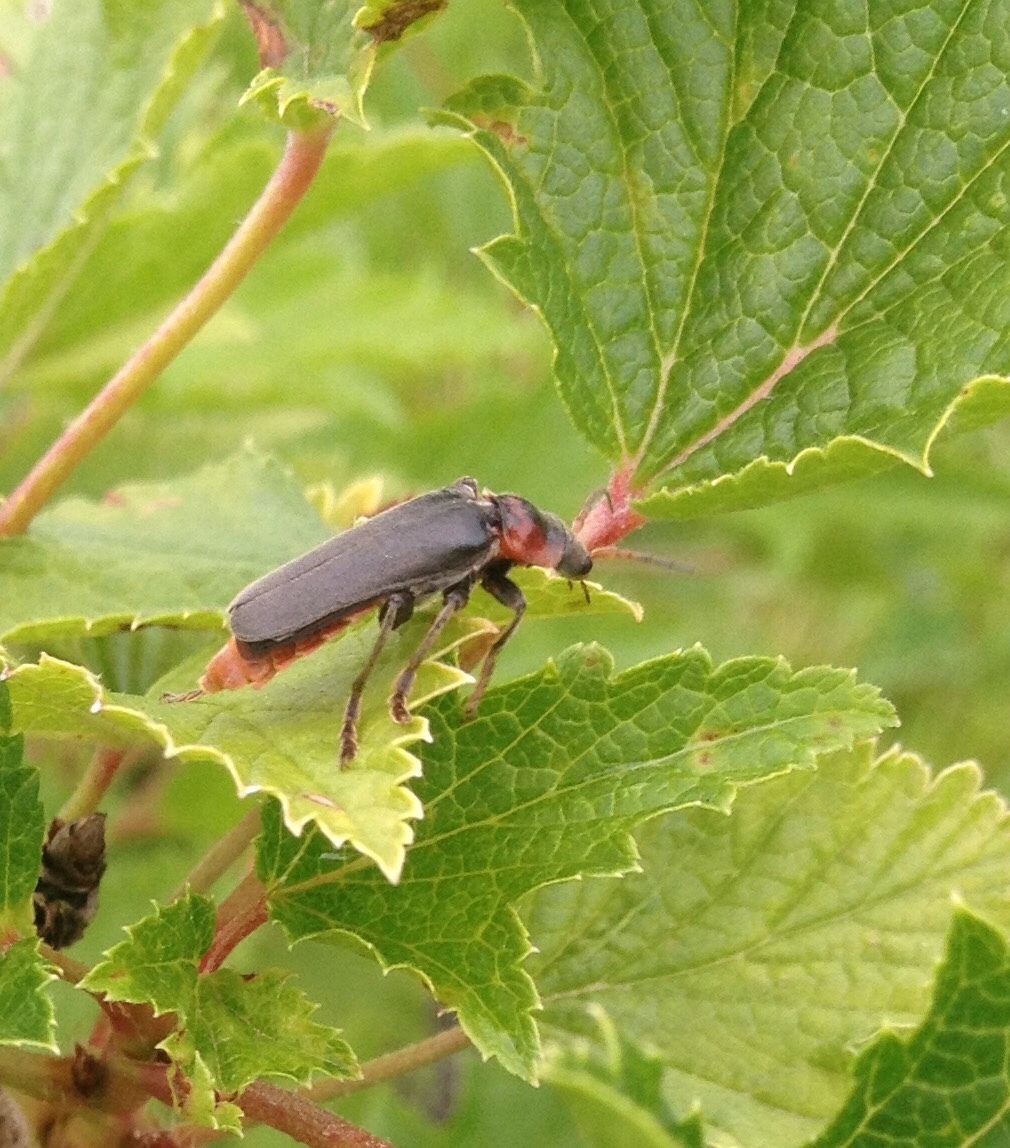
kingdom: Animalia
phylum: Arthropoda
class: Insecta
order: Coleoptera
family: Cantharidae
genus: Cantharis
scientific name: Cantharis fusca
